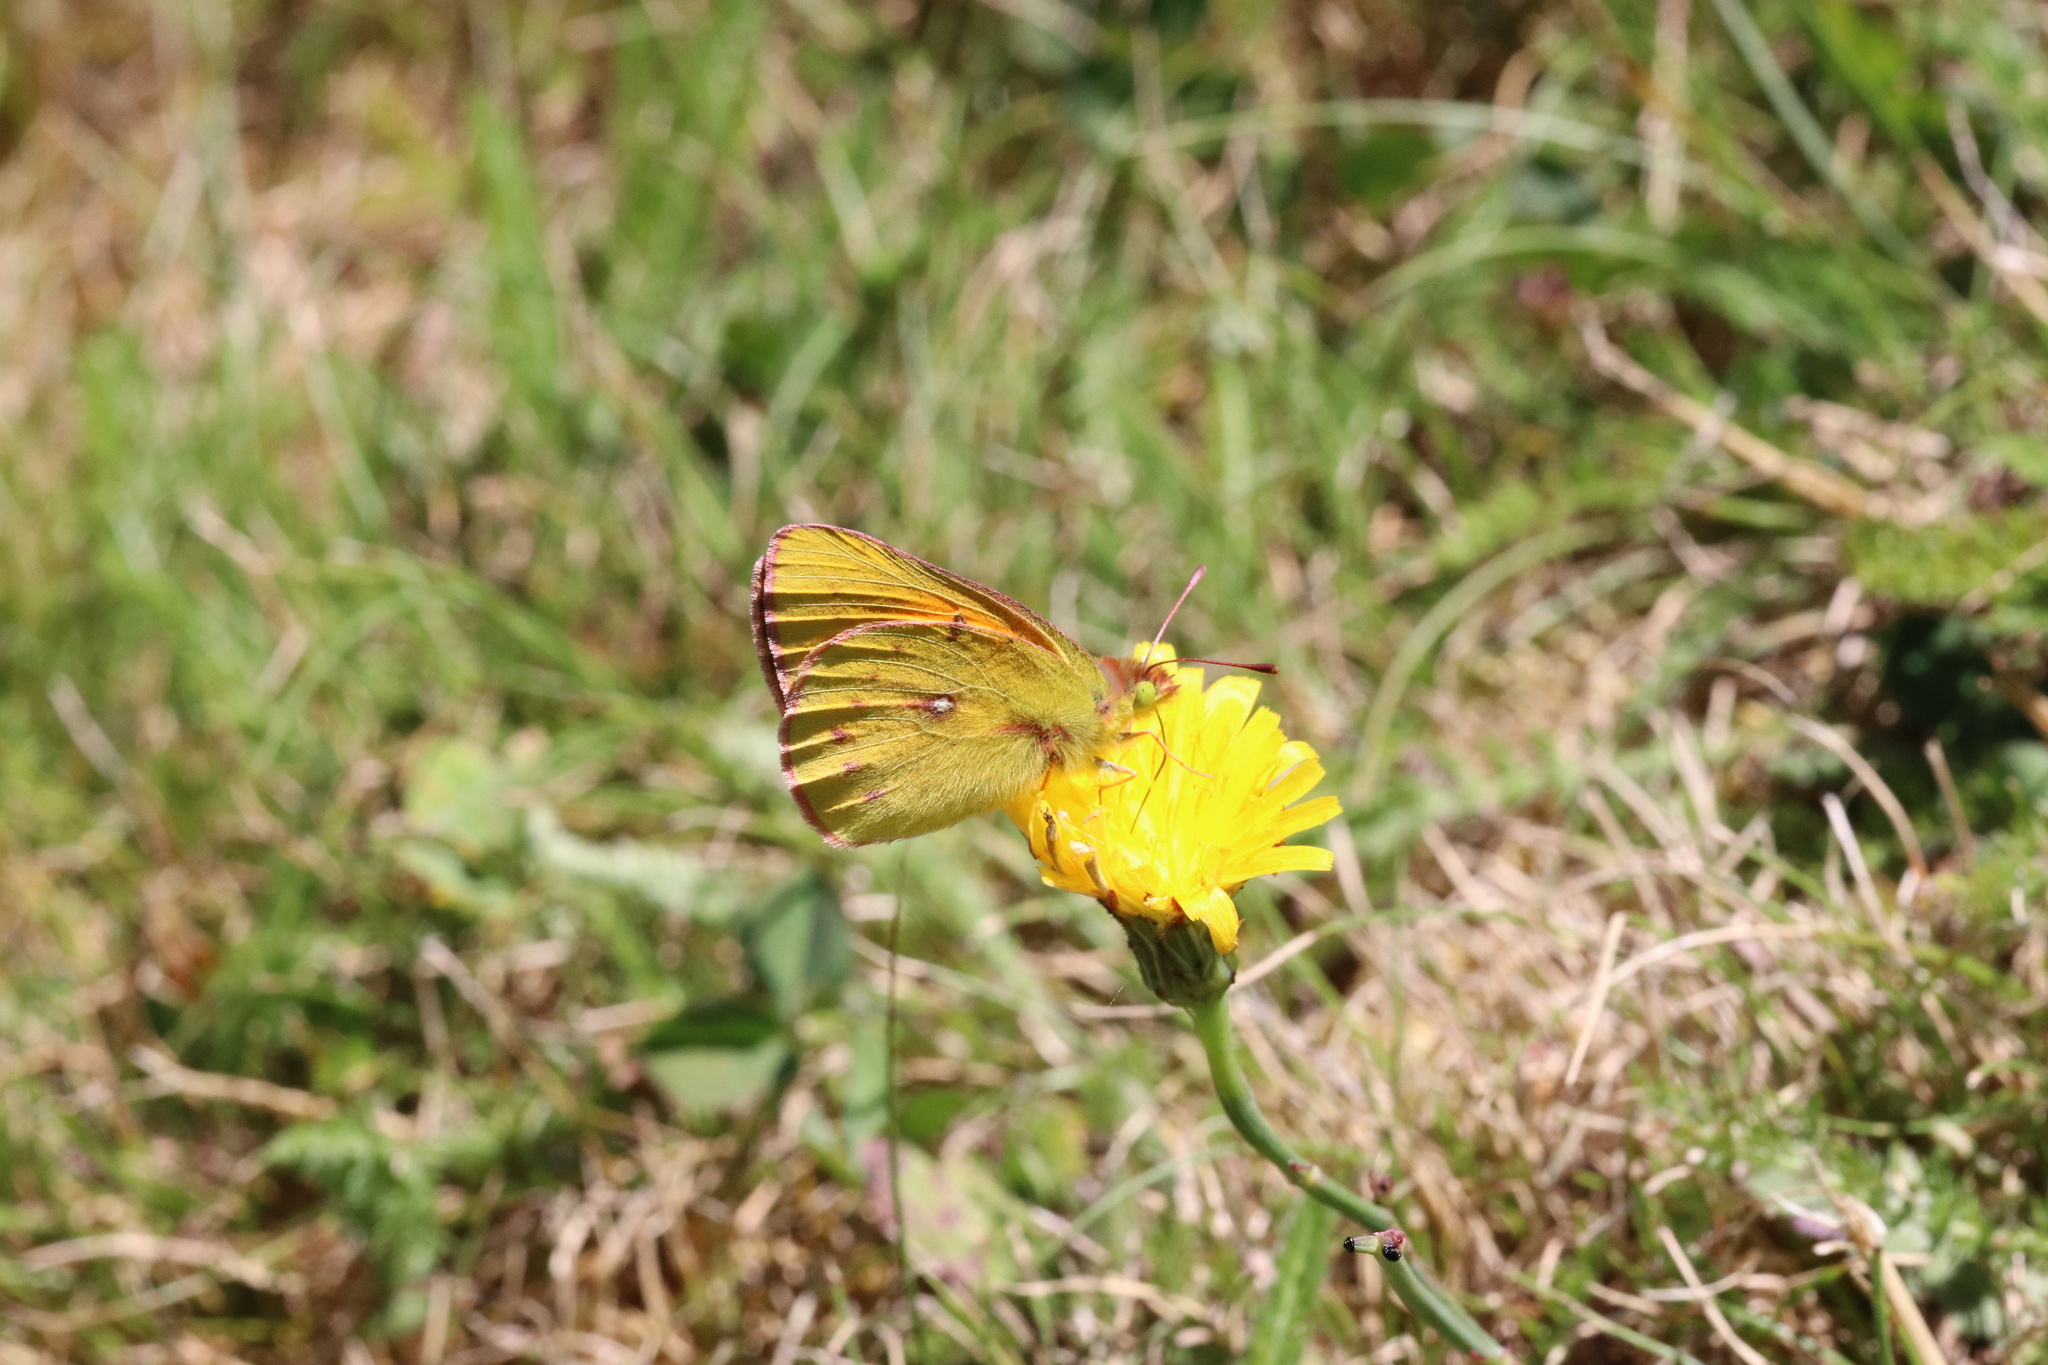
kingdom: Animalia
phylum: Arthropoda
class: Insecta
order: Lepidoptera
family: Pieridae
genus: Colias
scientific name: Colias vauthierii
